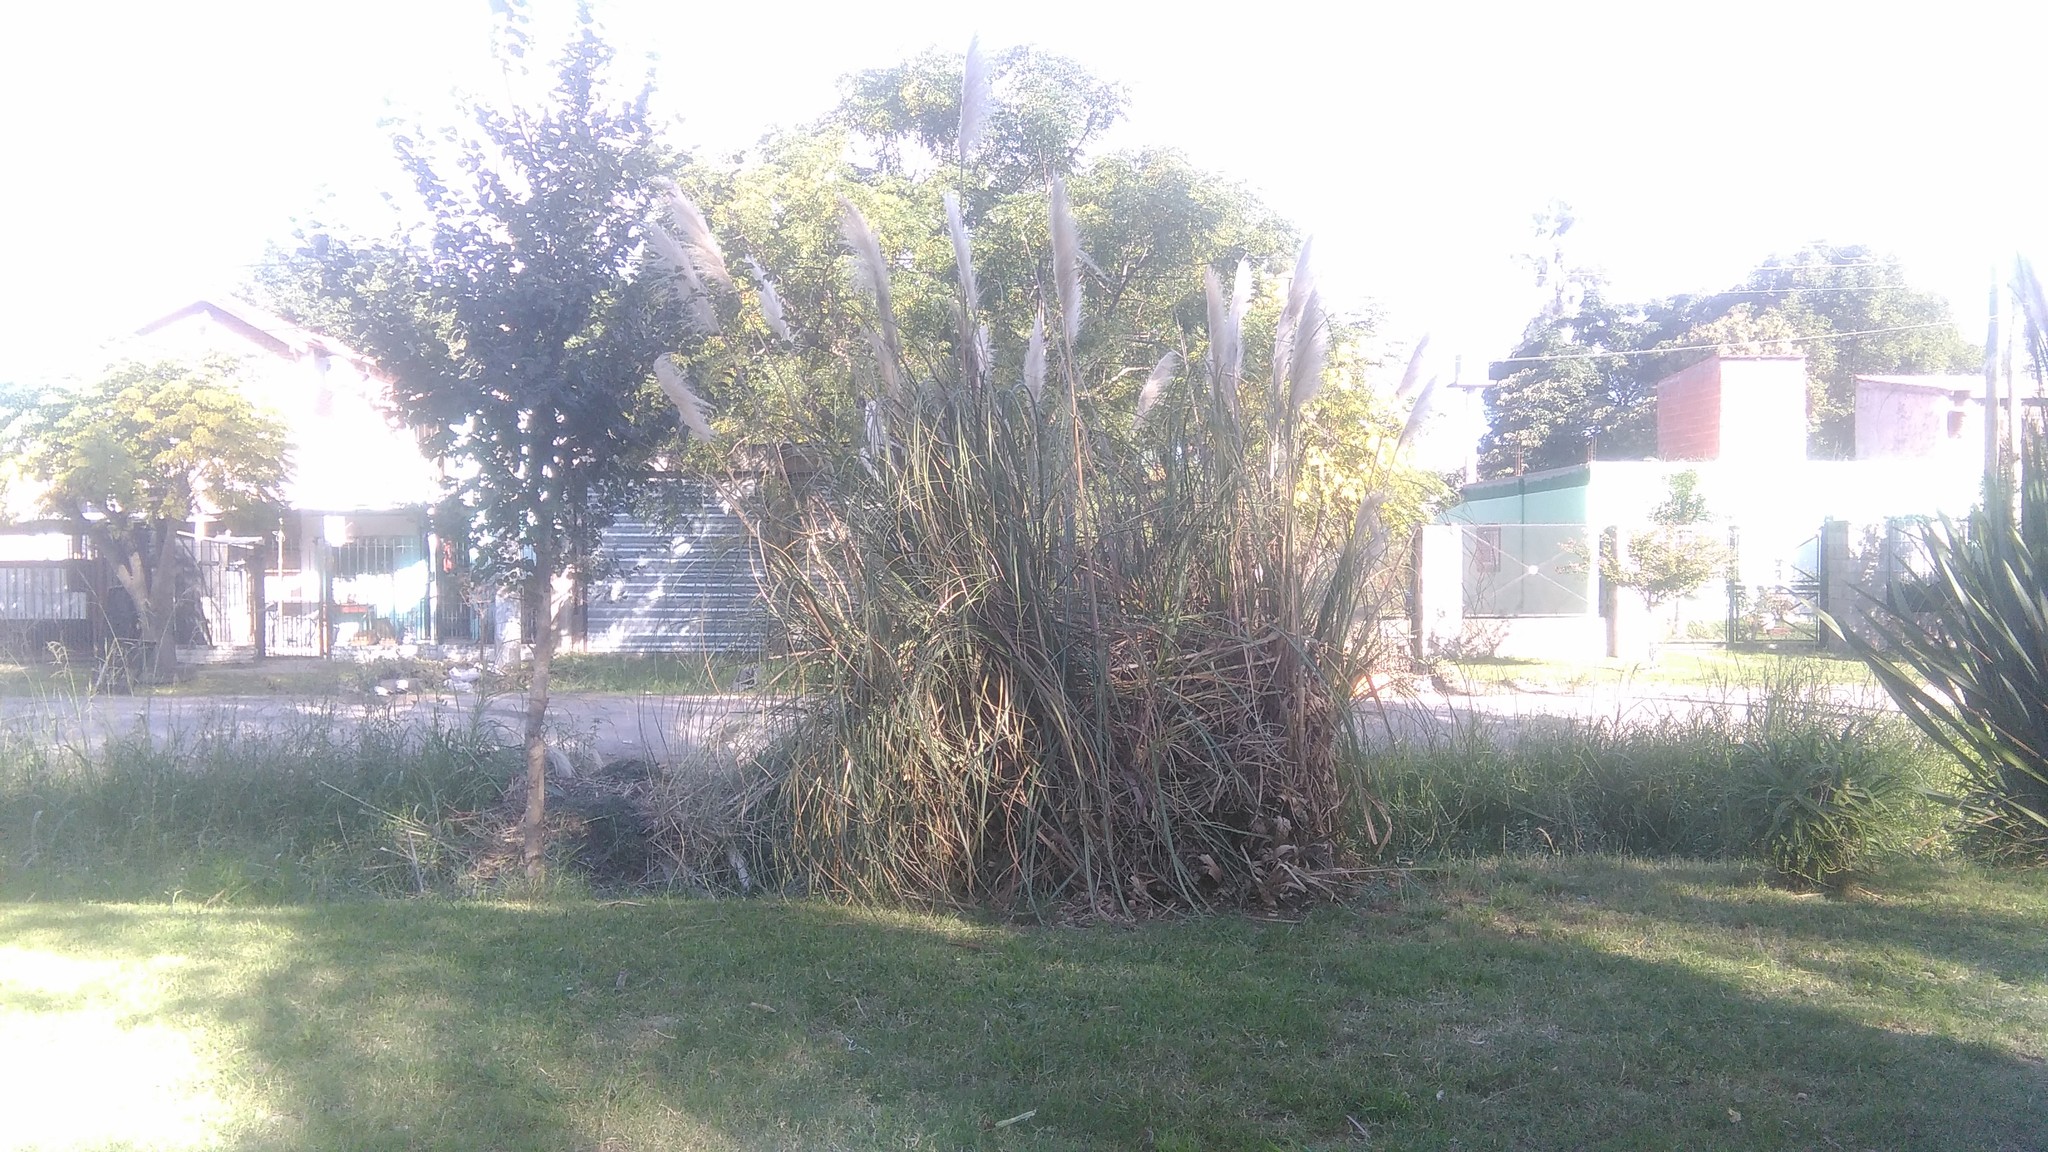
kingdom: Plantae
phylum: Tracheophyta
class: Liliopsida
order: Poales
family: Poaceae
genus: Cortaderia
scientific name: Cortaderia selloana
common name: Uruguayan pampas grass
